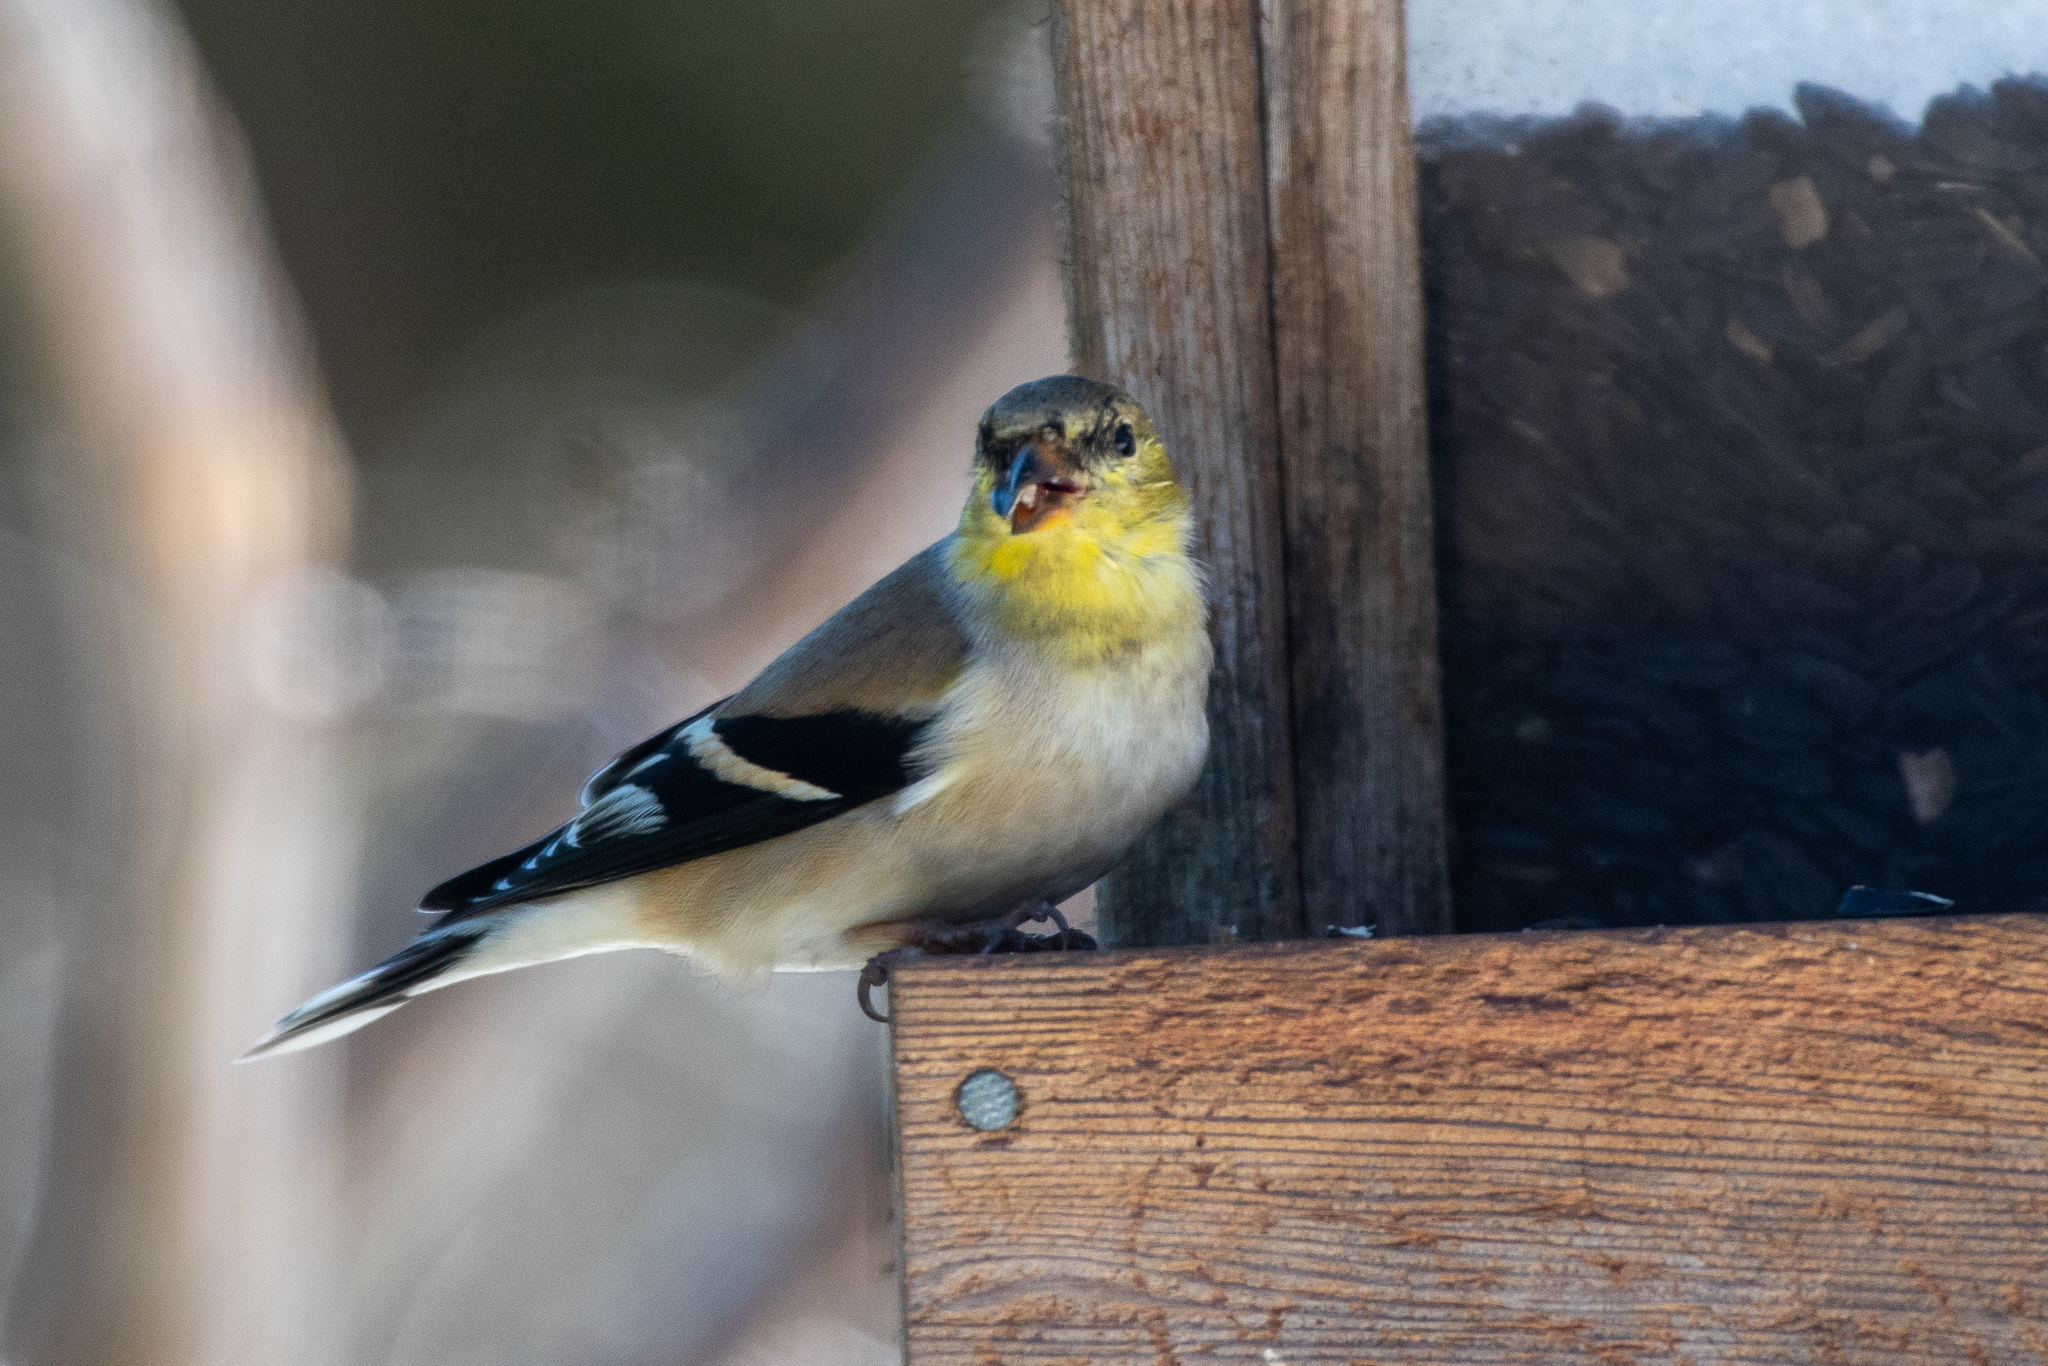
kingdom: Animalia
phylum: Chordata
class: Aves
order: Passeriformes
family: Fringillidae
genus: Spinus
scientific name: Spinus tristis
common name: American goldfinch
